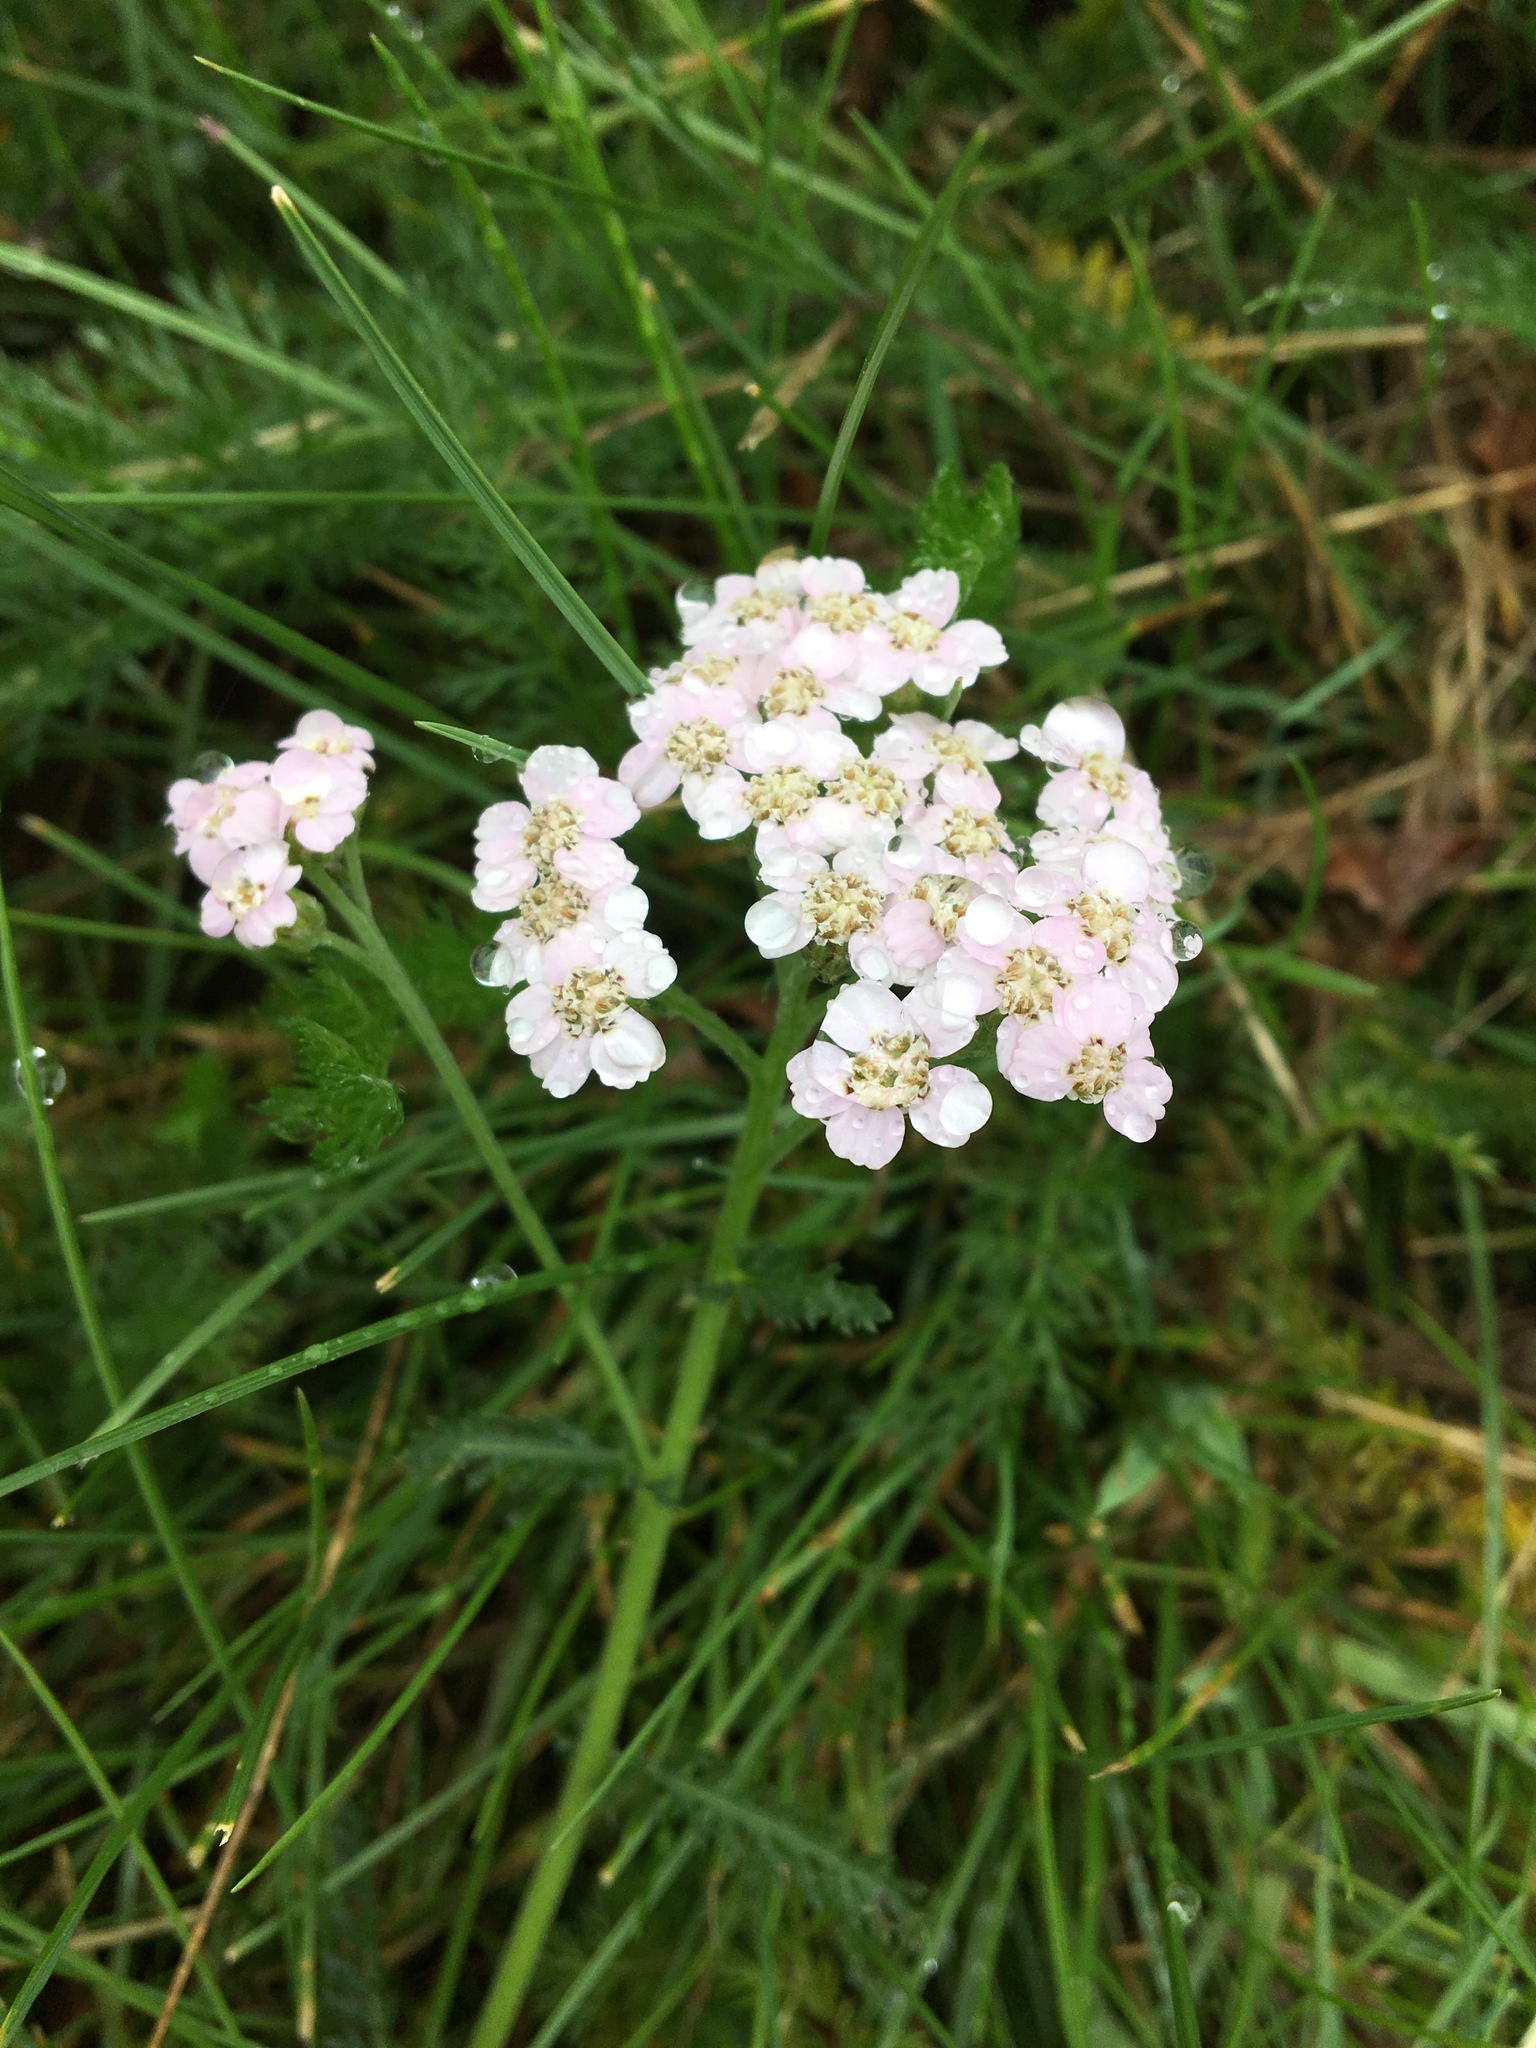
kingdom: Plantae
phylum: Tracheophyta
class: Magnoliopsida
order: Asterales
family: Asteraceae
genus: Achillea
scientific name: Achillea millefolium
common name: Yarrow
